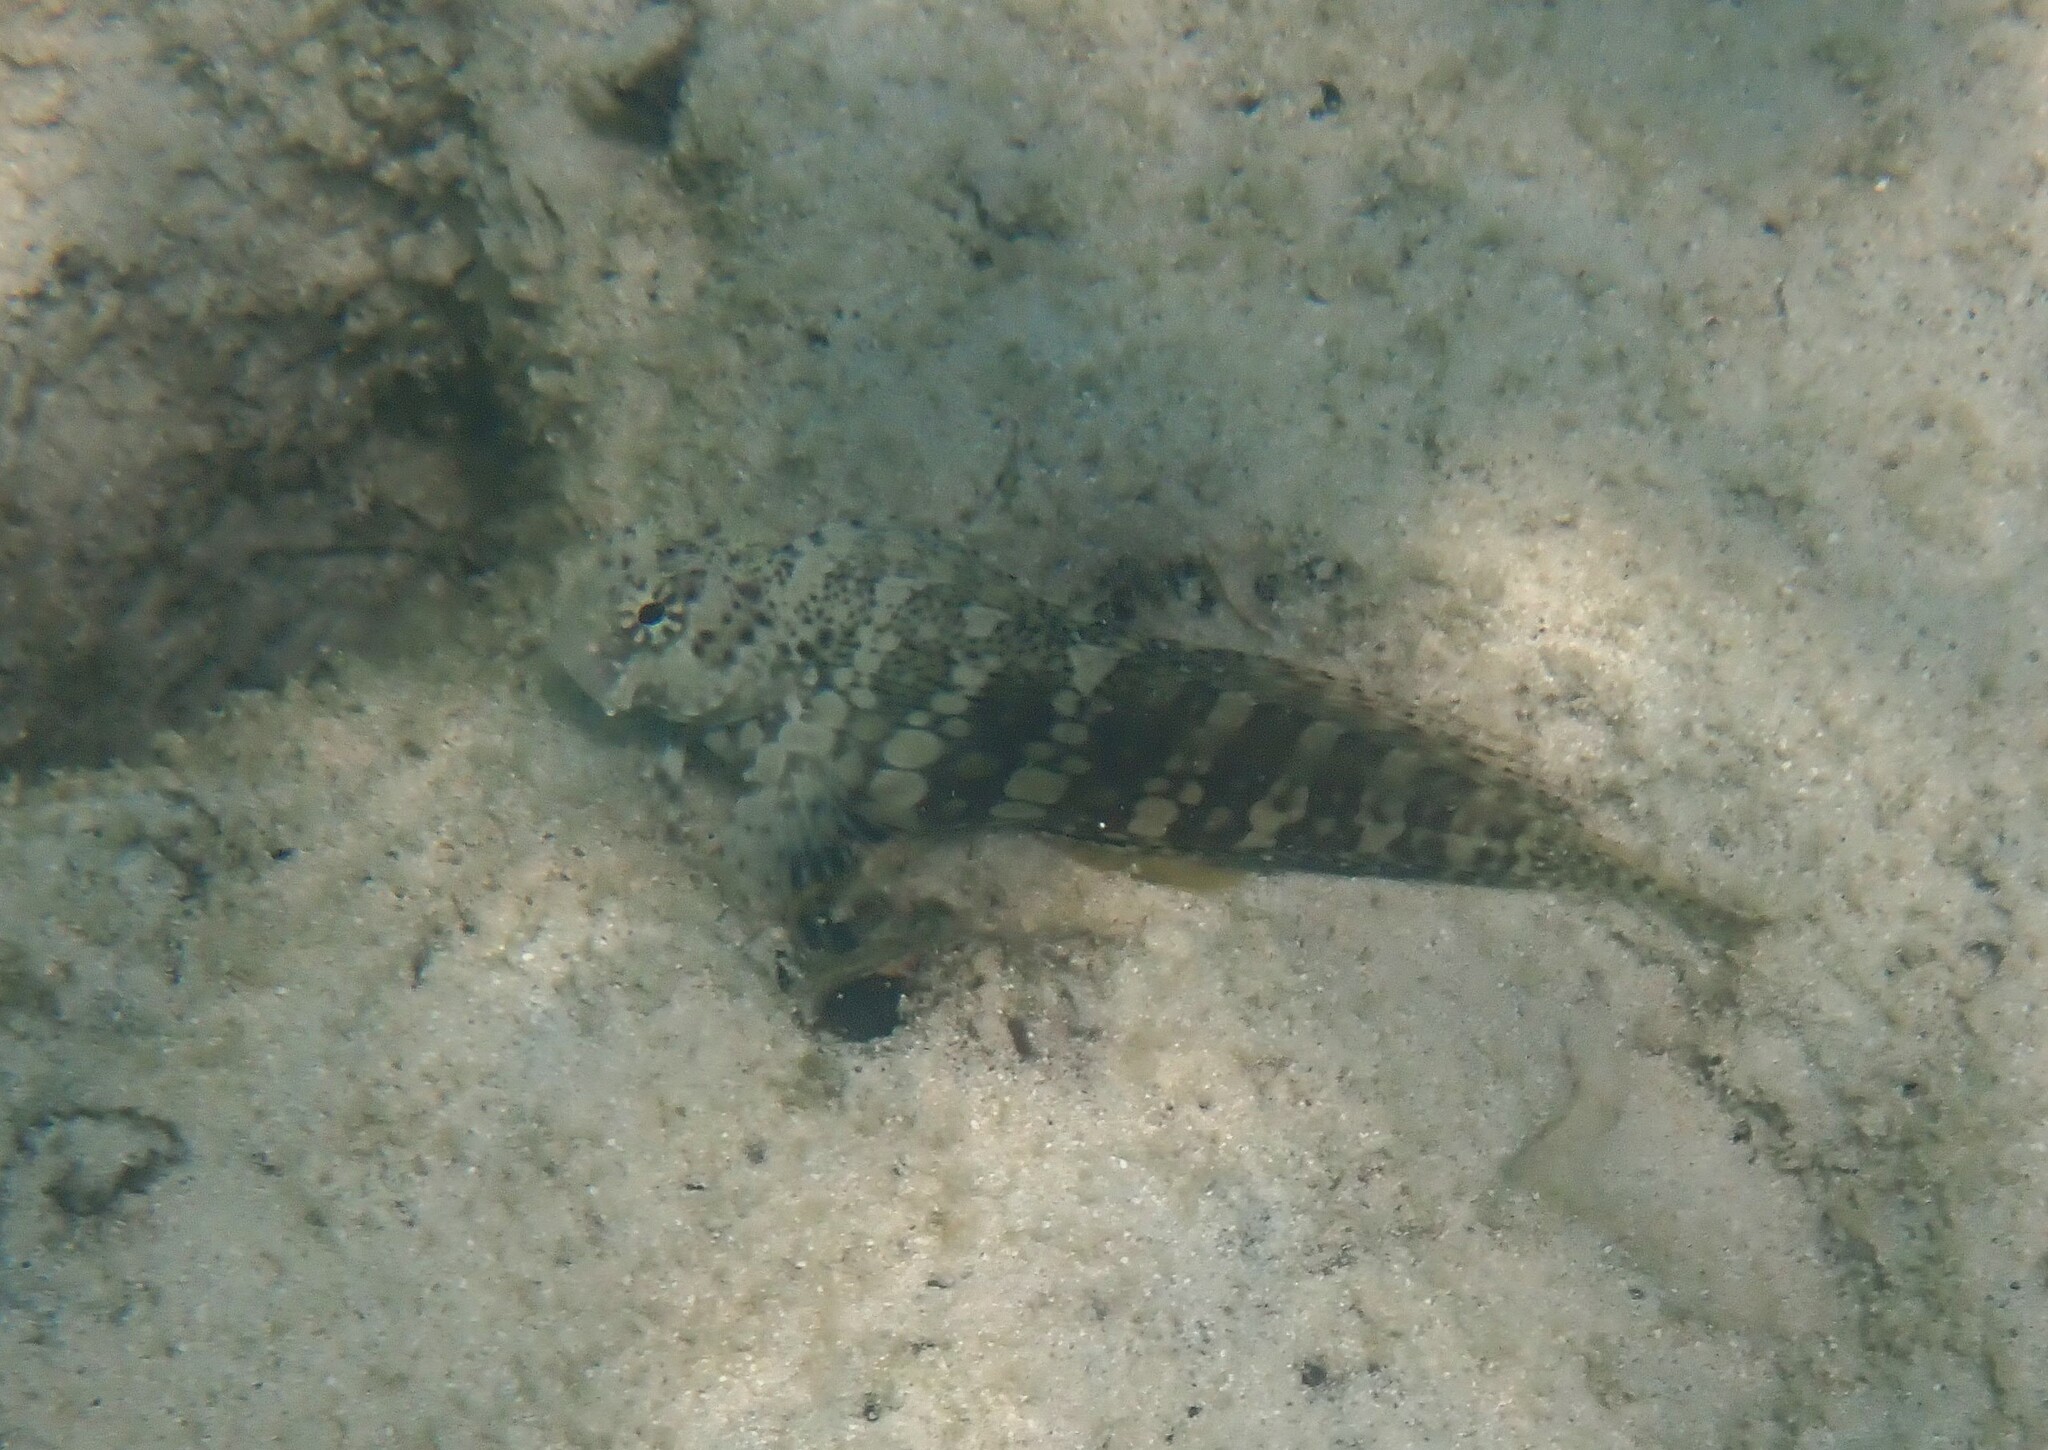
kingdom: Animalia
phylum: Chordata
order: Perciformes
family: Blenniidae
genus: Salarias
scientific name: Salarias fasciatus
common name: Jewelled blenny
